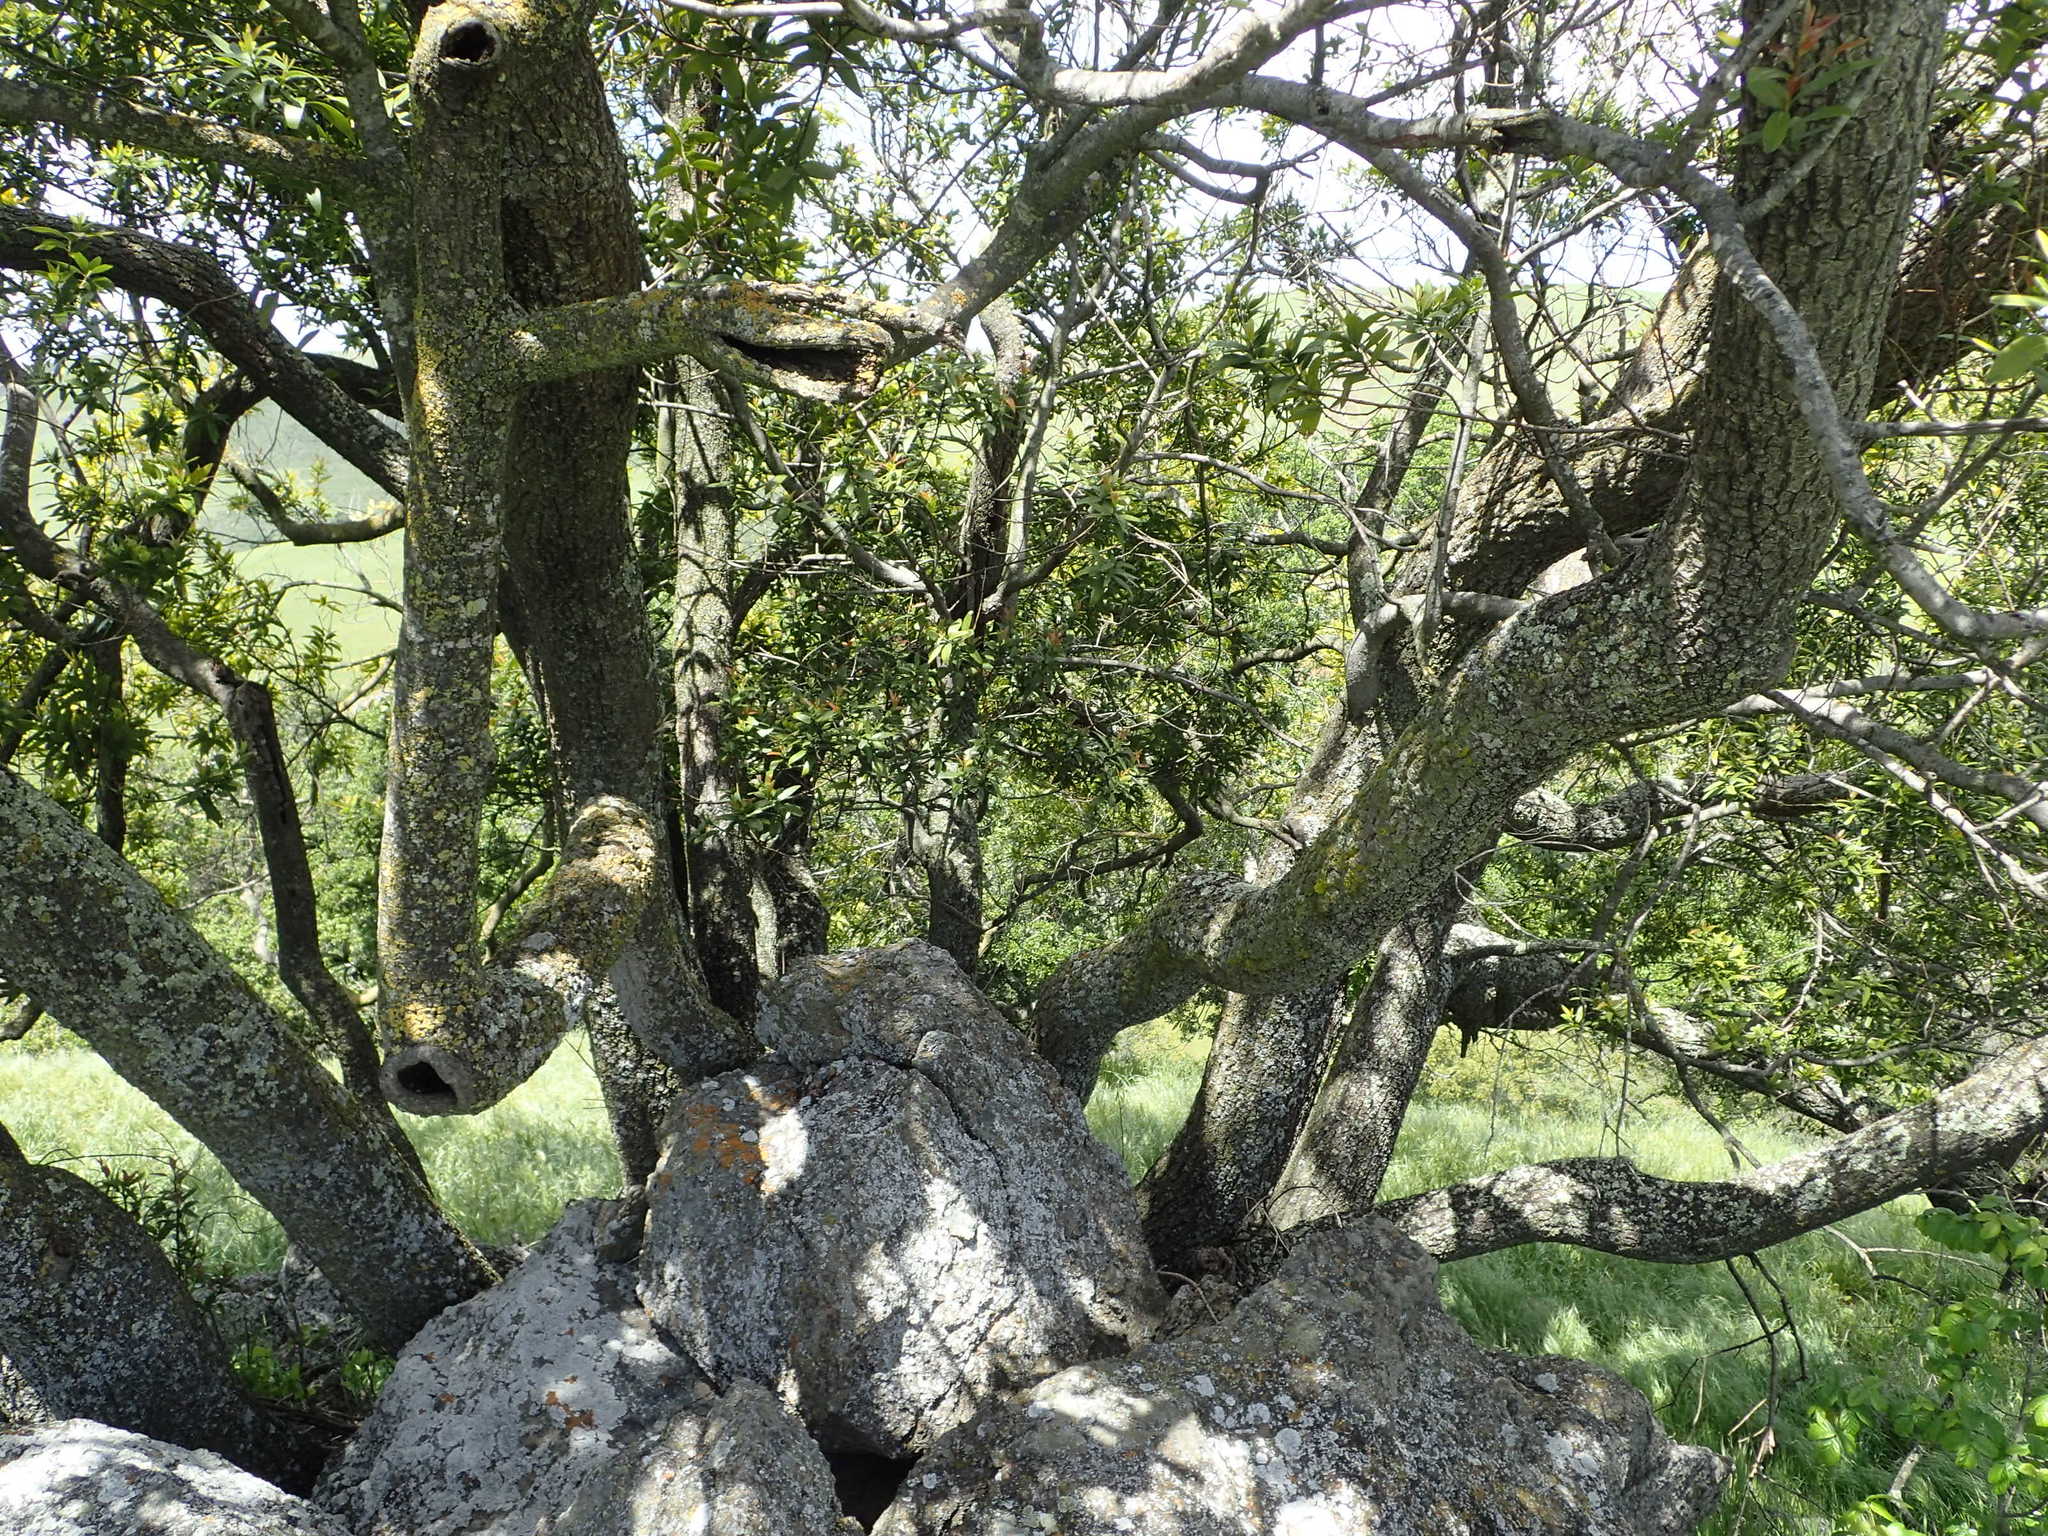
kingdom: Plantae
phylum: Tracheophyta
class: Magnoliopsida
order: Laurales
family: Lauraceae
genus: Umbellularia
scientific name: Umbellularia californica
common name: California bay
